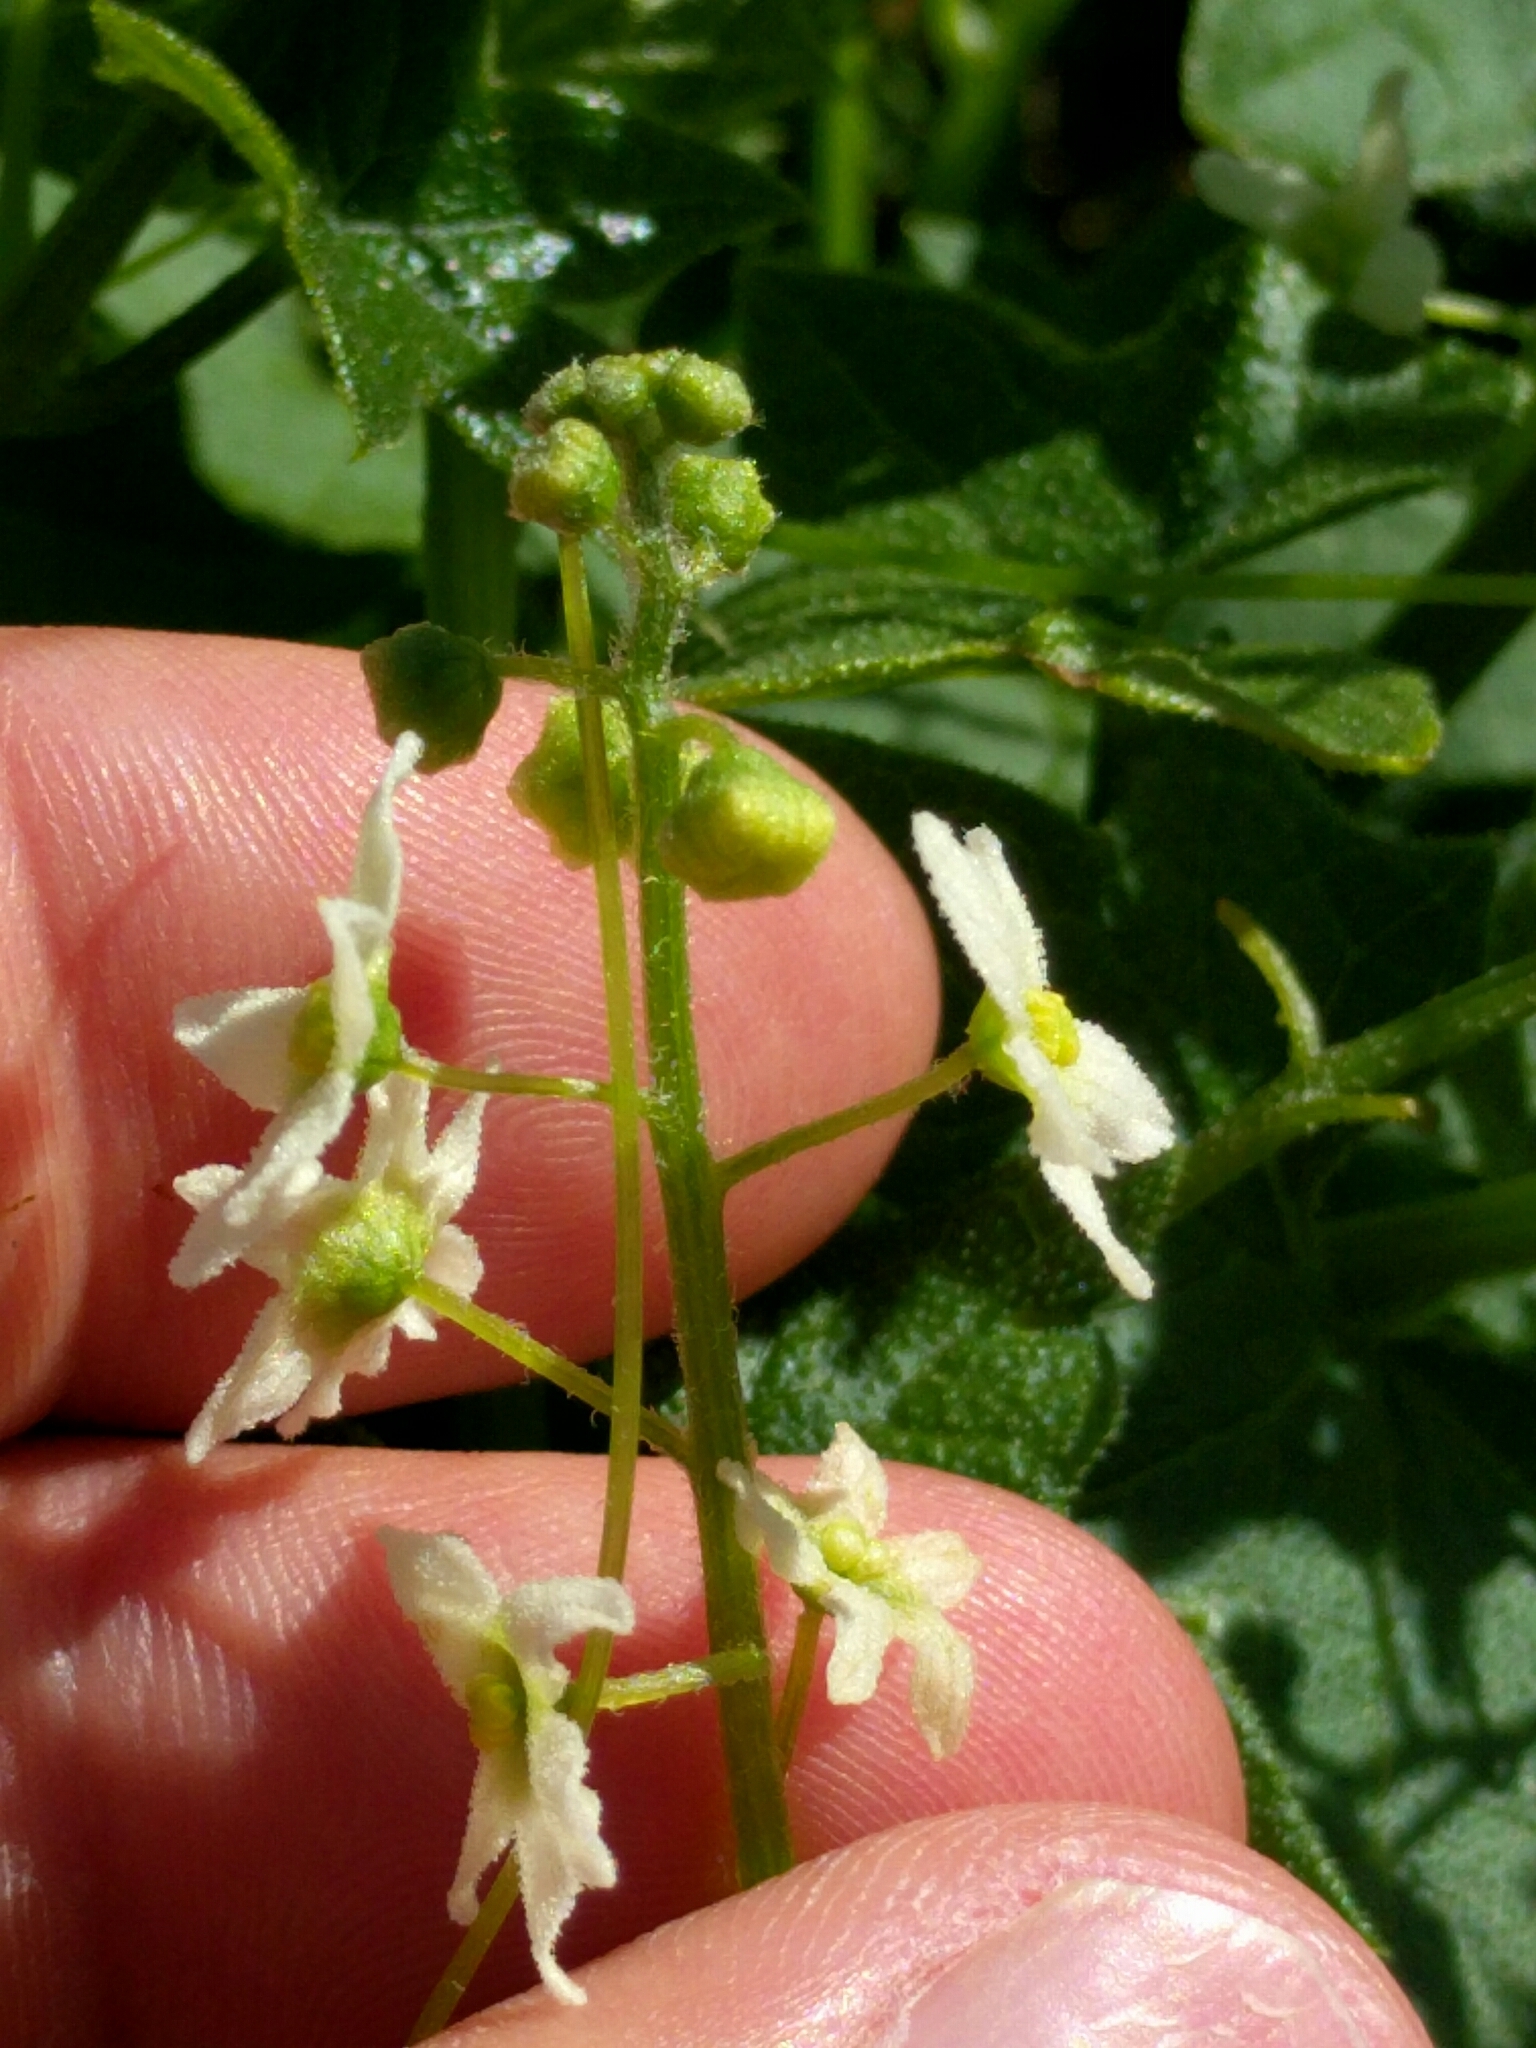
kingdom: Plantae
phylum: Tracheophyta
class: Magnoliopsida
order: Cucurbitales
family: Cucurbitaceae
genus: Marah
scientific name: Marah fabacea
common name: California manroot
